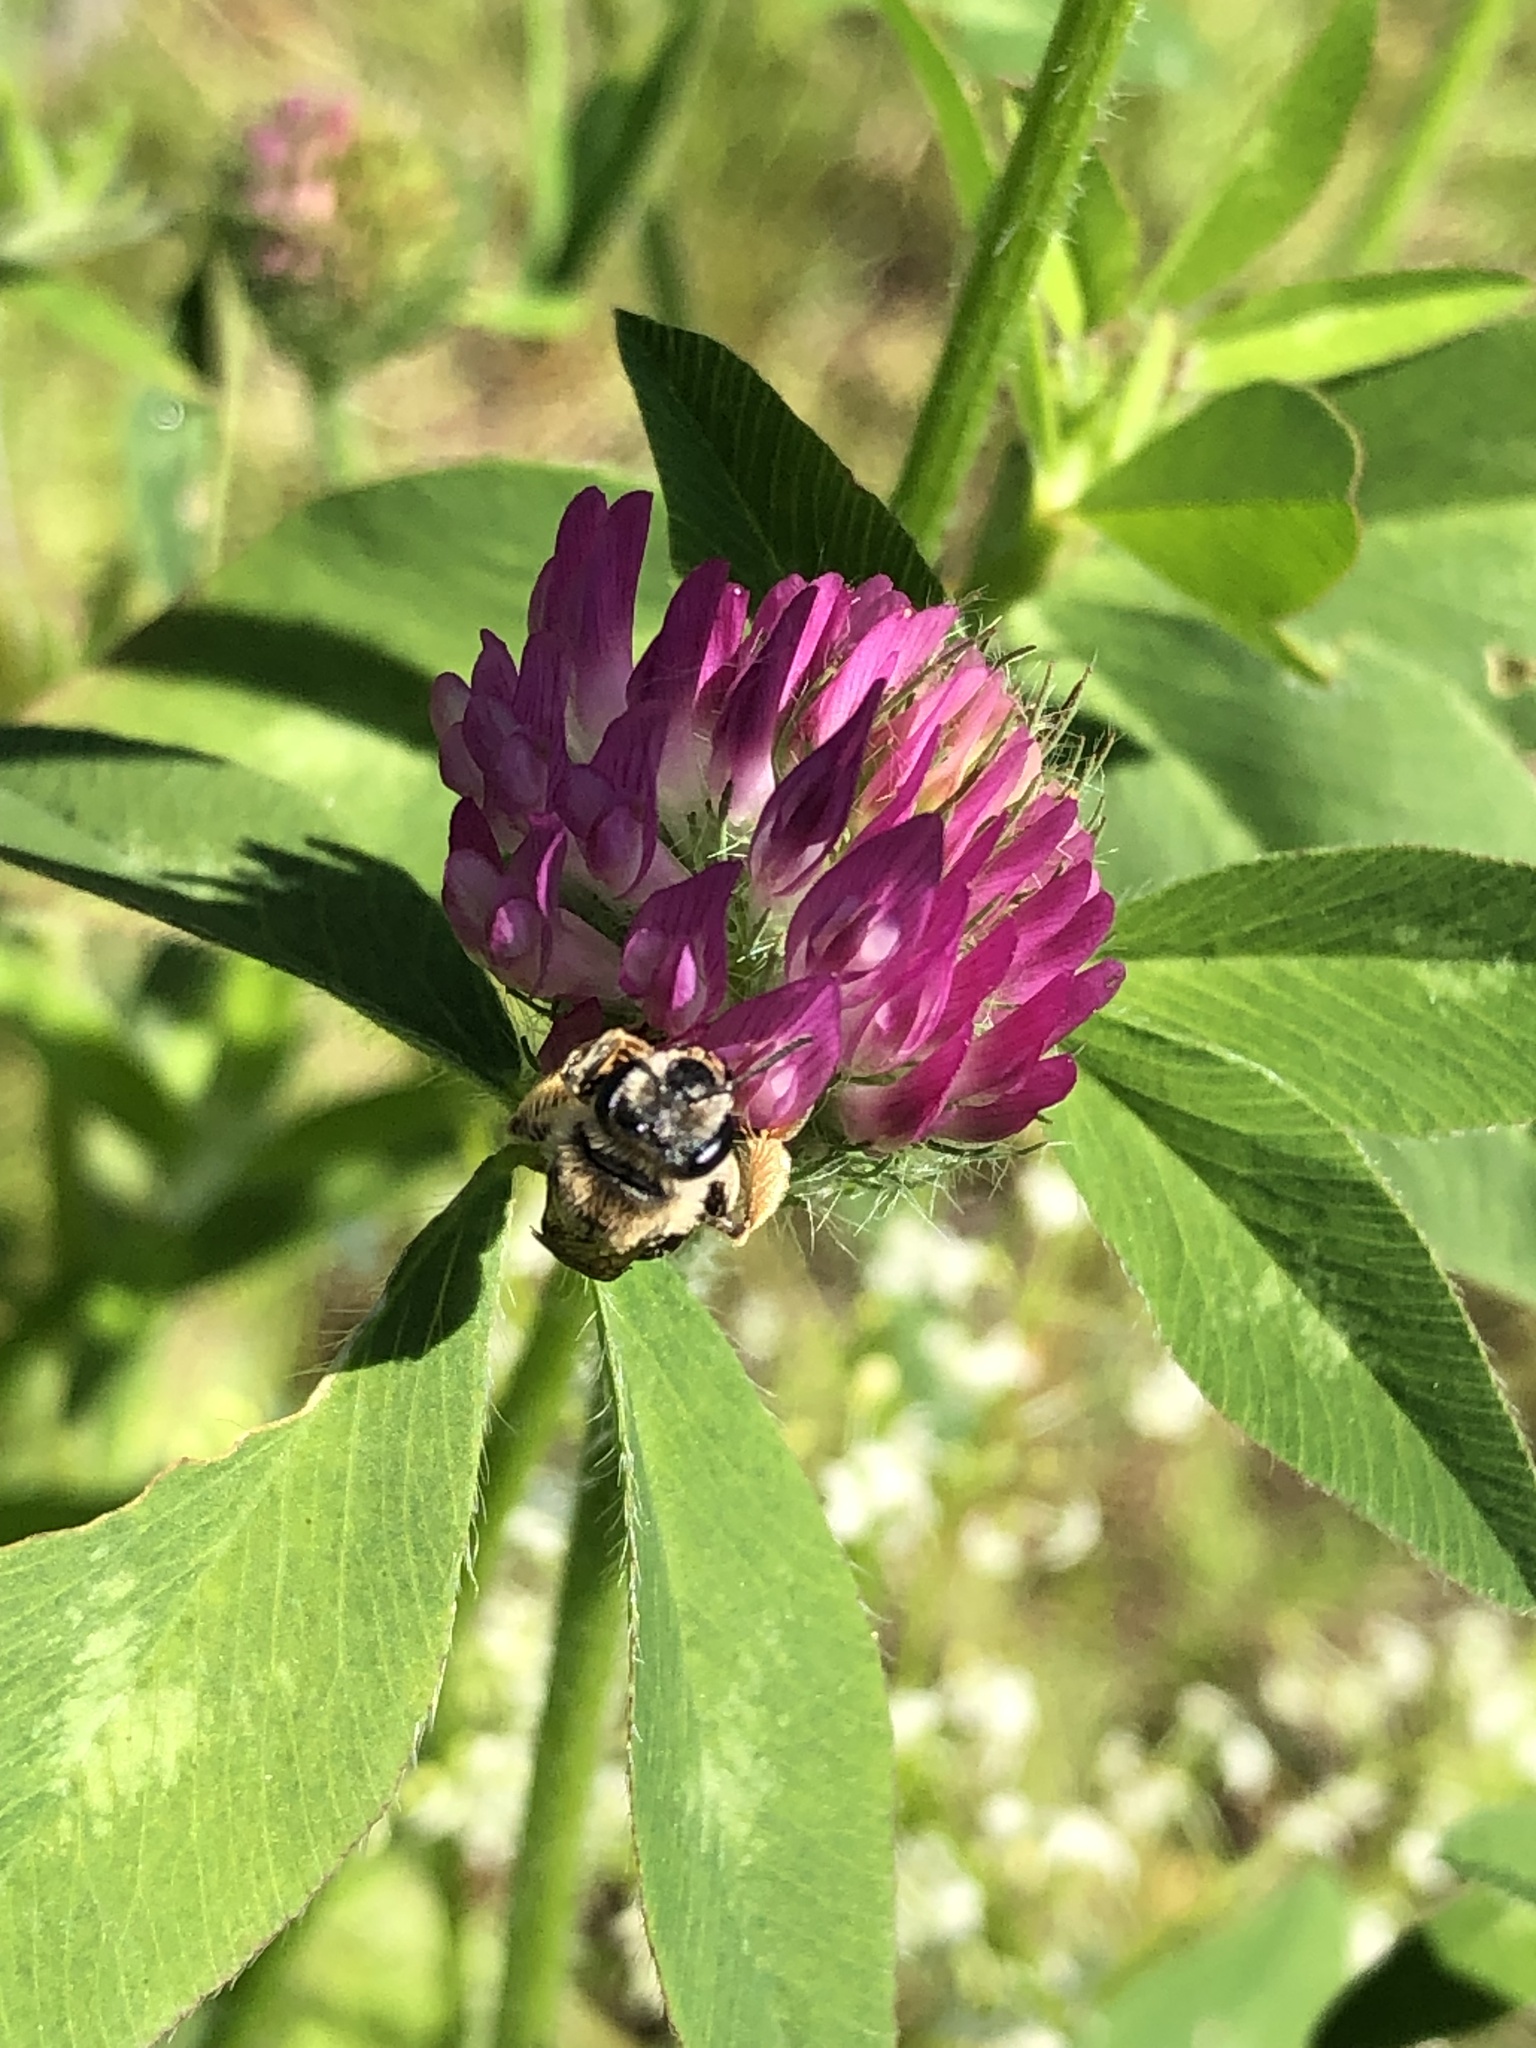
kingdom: Animalia
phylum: Arthropoda
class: Insecta
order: Hymenoptera
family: Andrenidae
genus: Andrena
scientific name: Andrena wilkella
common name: Wilke's mining bee
